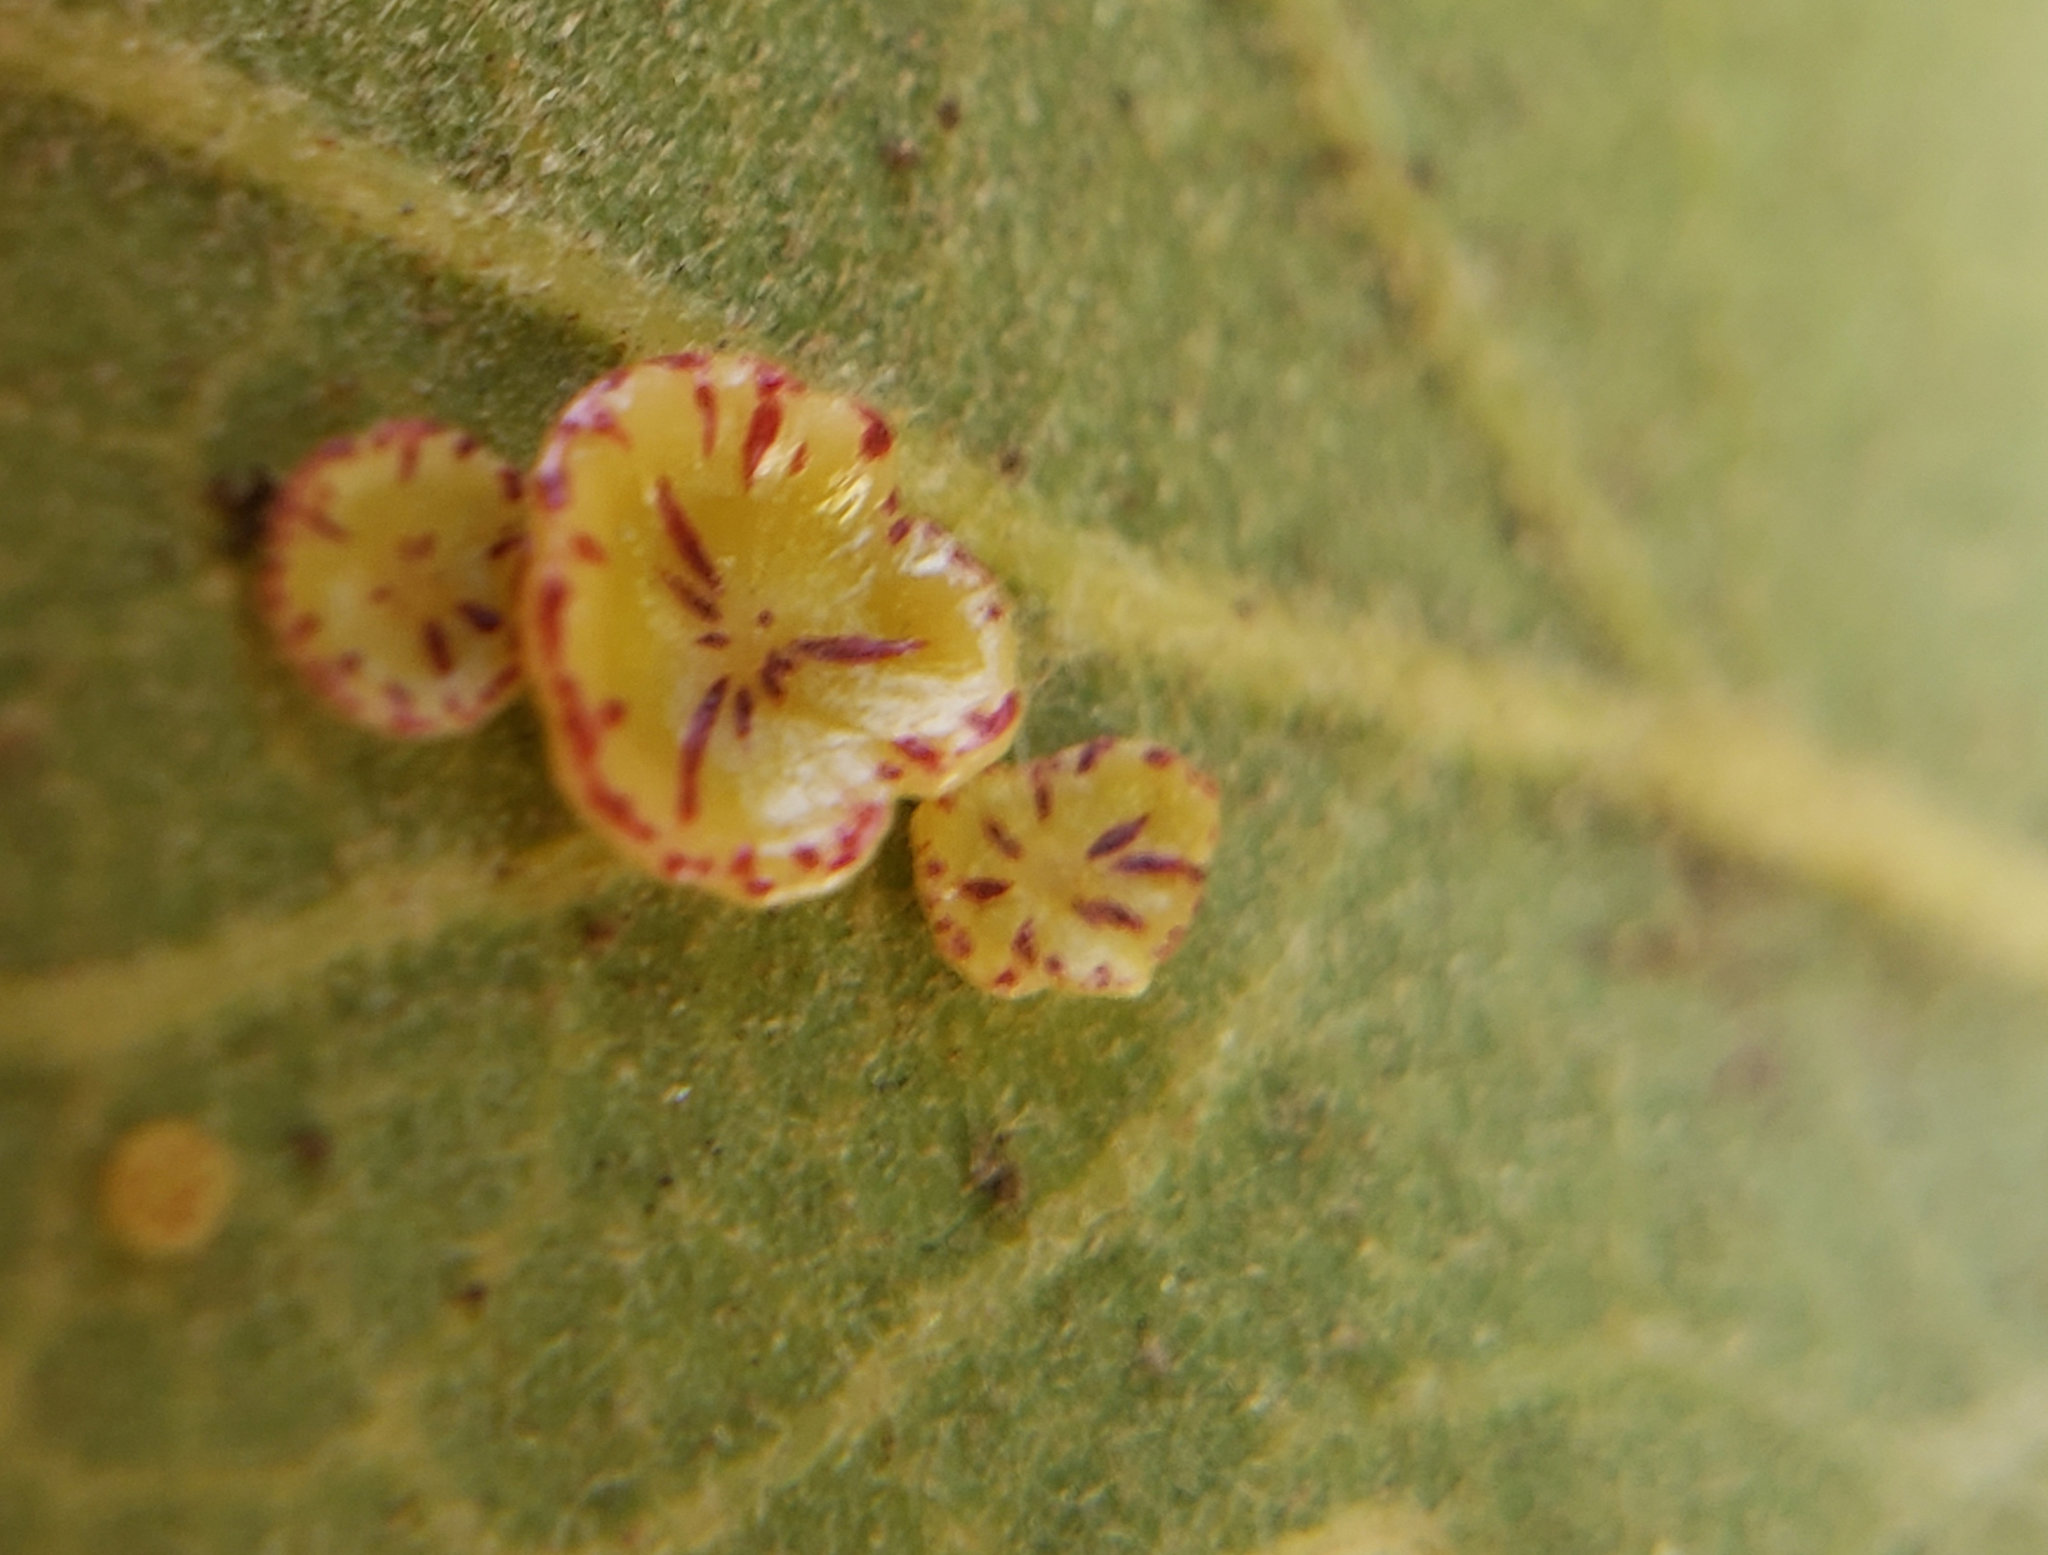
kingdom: Animalia
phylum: Arthropoda
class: Insecta
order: Hymenoptera
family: Cynipidae
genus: Andricus
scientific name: Andricus
